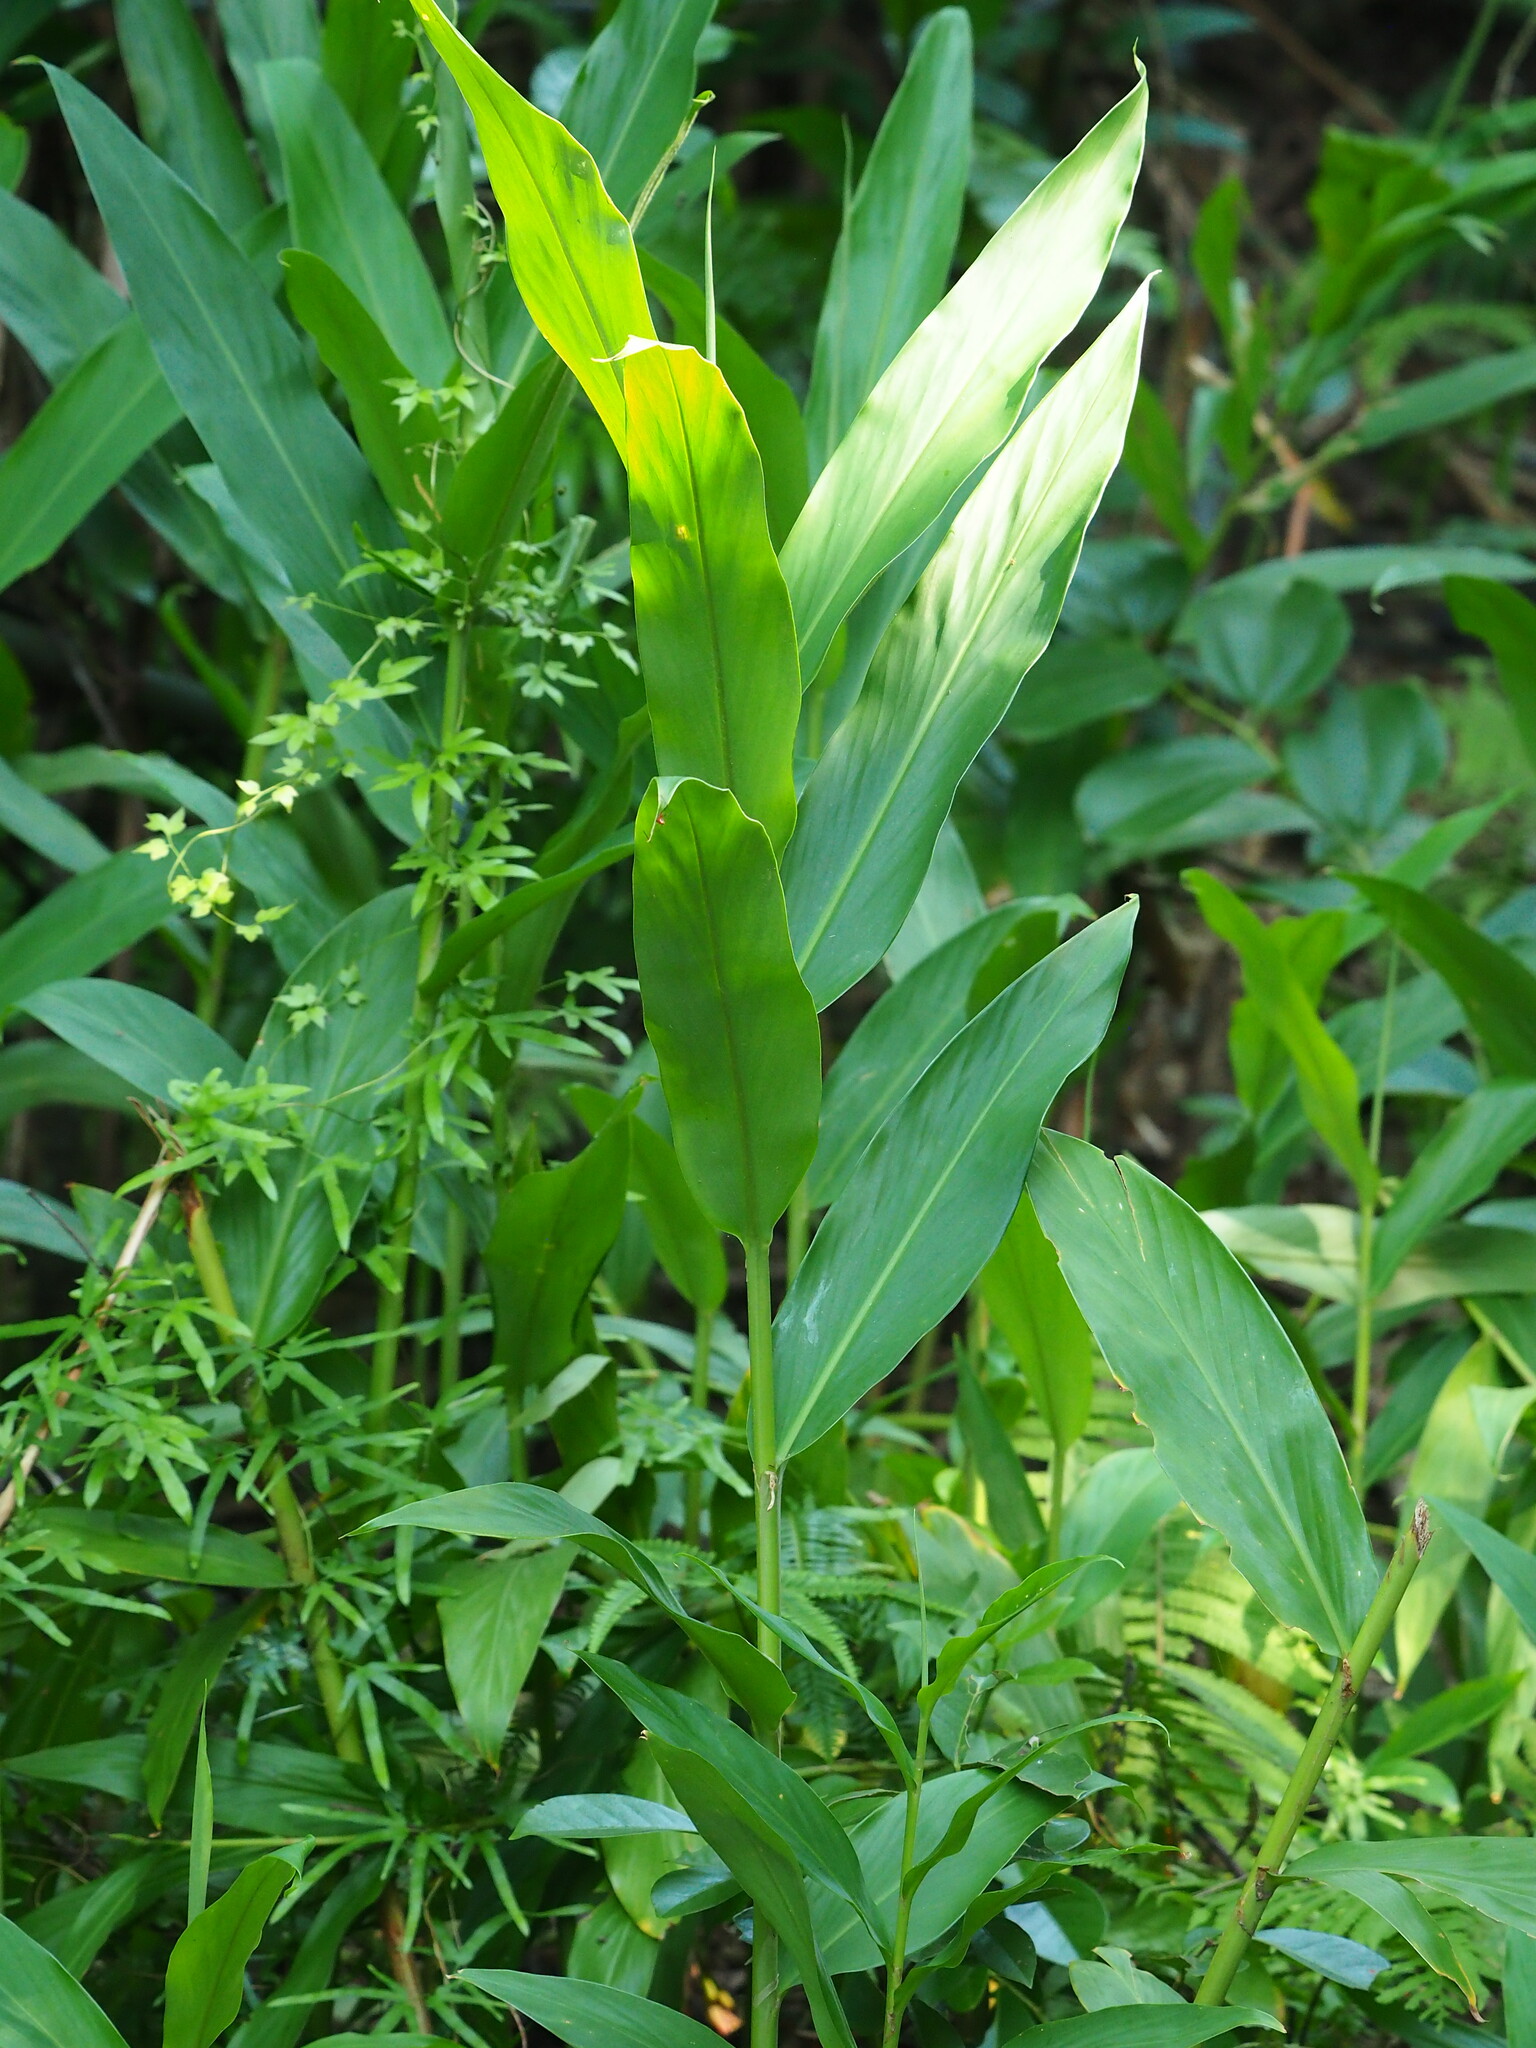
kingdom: Plantae
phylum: Tracheophyta
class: Liliopsida
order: Zingiberales
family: Zingiberaceae
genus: Hedychium
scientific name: Hedychium coronarium
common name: White garland-lily
